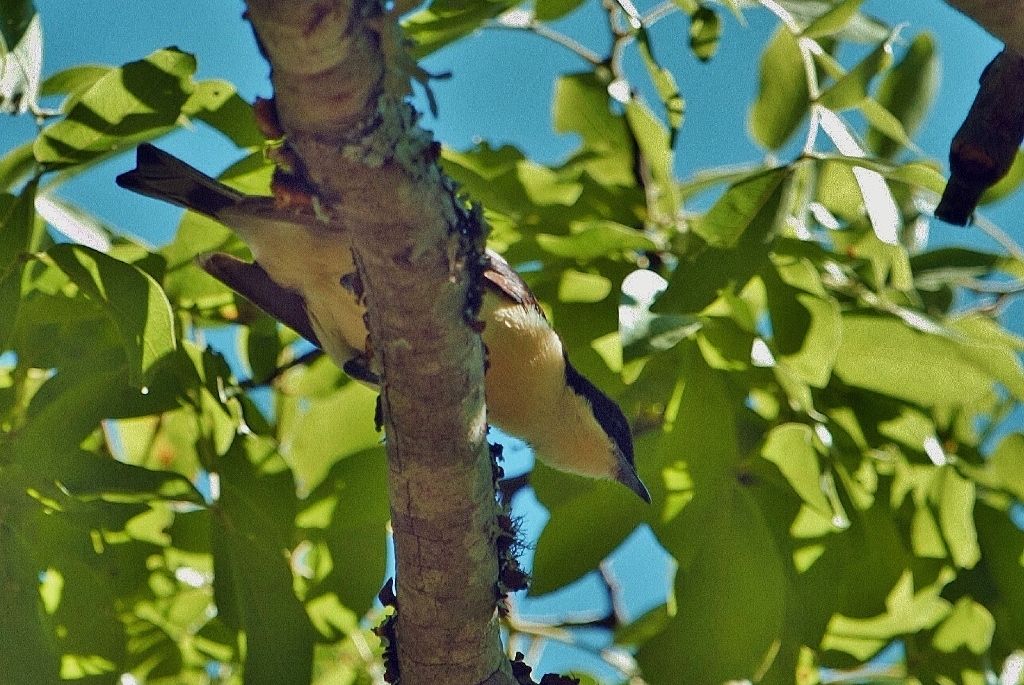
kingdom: Animalia
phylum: Chordata
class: Aves
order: Passeriformes
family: Hyliotidae
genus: Hyliota
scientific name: Hyliota australis
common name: Southern hyliota
